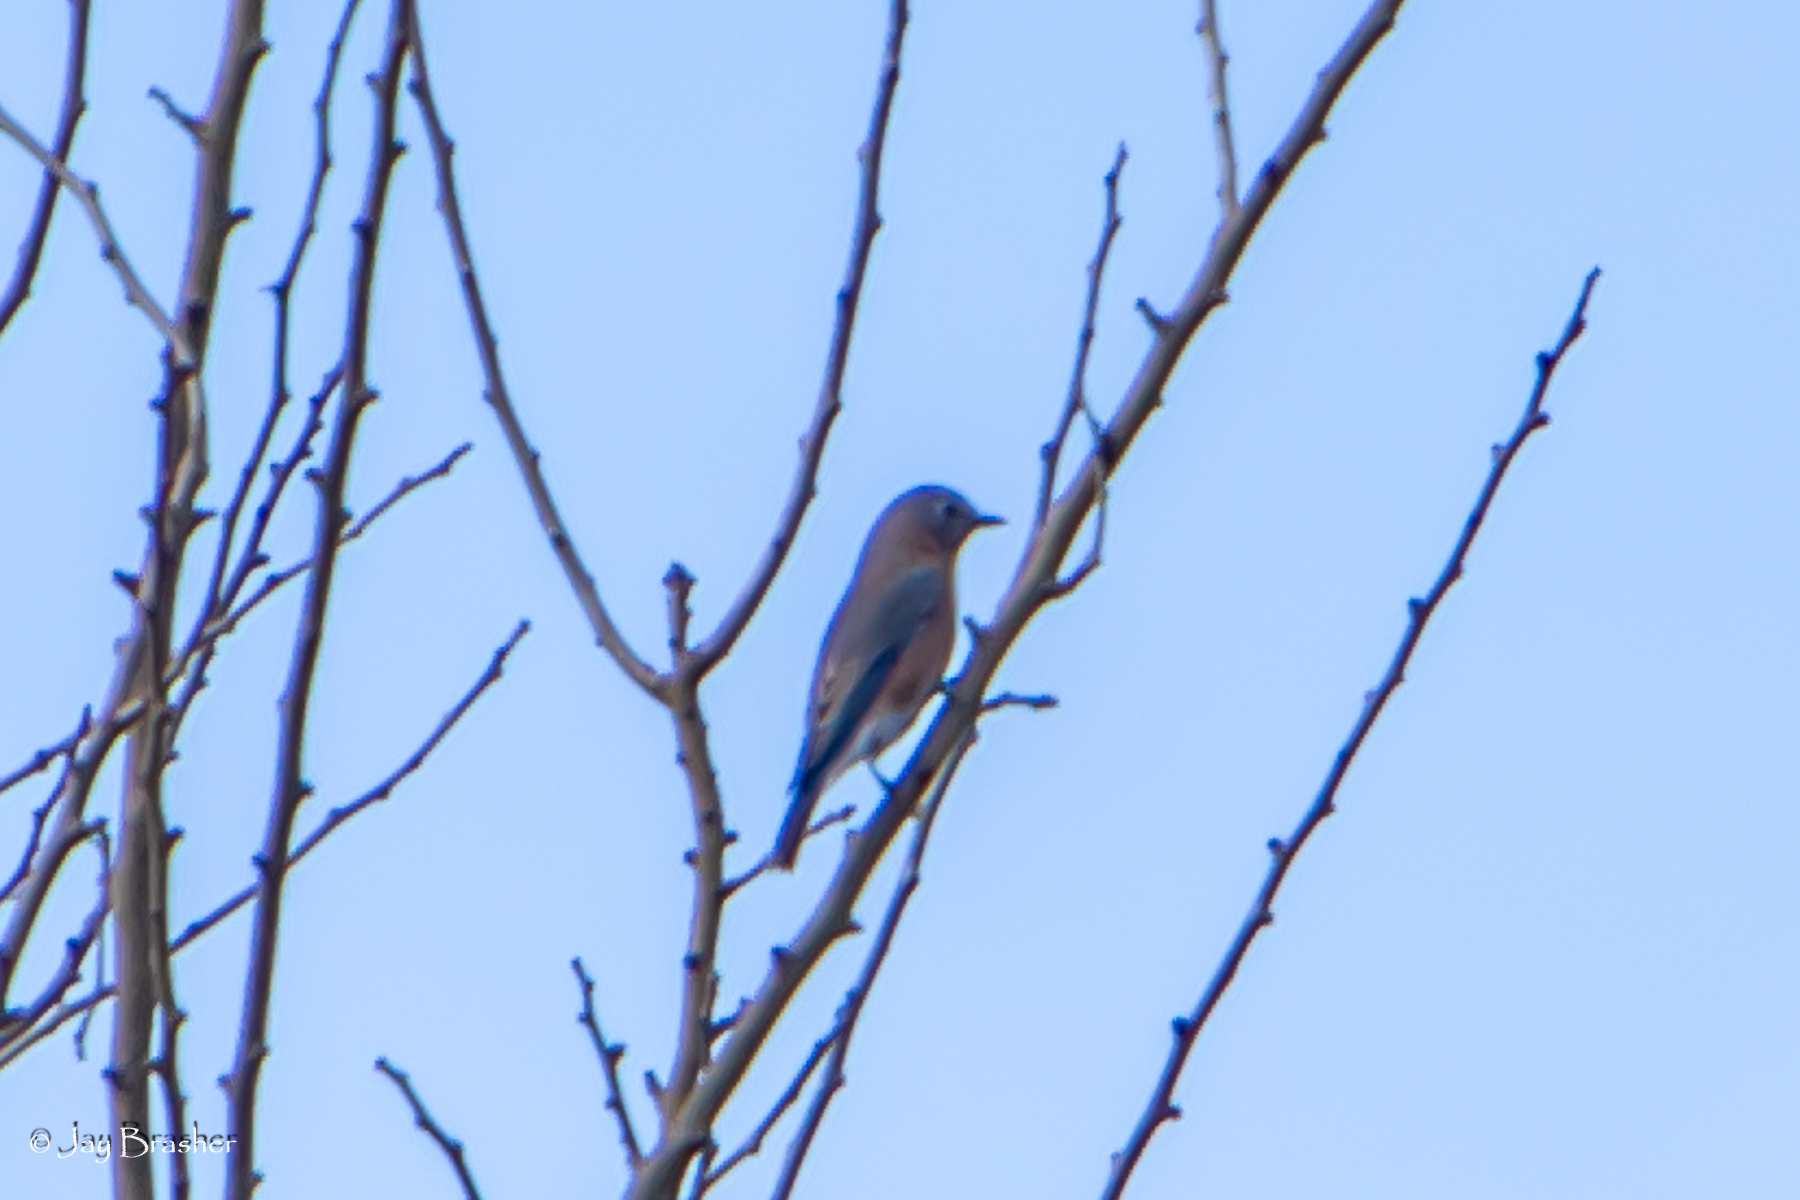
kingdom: Animalia
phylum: Chordata
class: Aves
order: Passeriformes
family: Turdidae
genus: Sialia
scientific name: Sialia sialis
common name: Eastern bluebird
